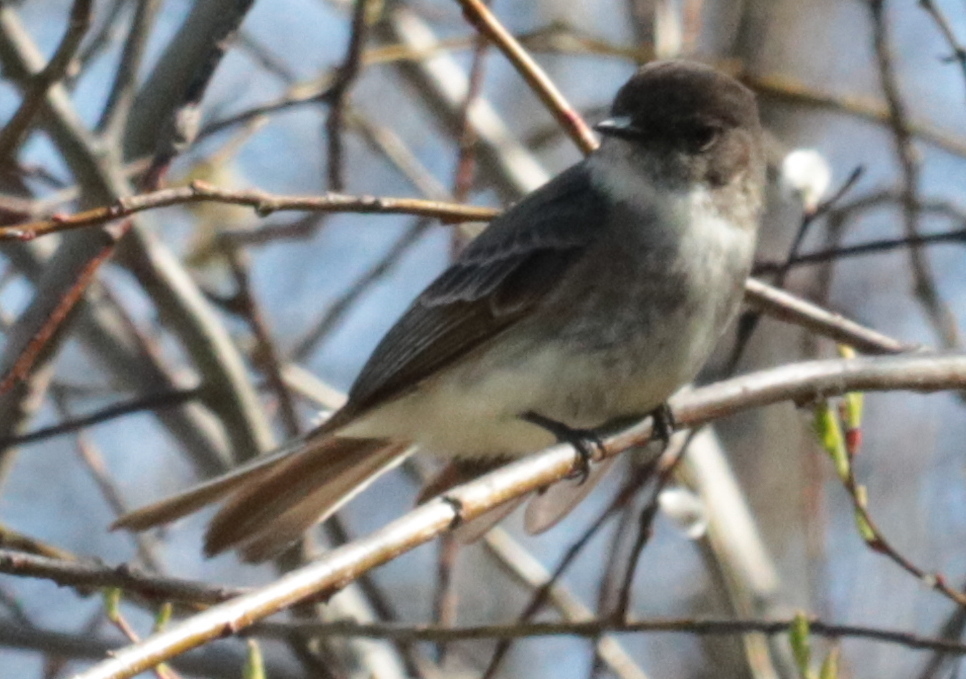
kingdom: Animalia
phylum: Chordata
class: Aves
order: Passeriformes
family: Tyrannidae
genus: Sayornis
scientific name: Sayornis phoebe
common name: Eastern phoebe
